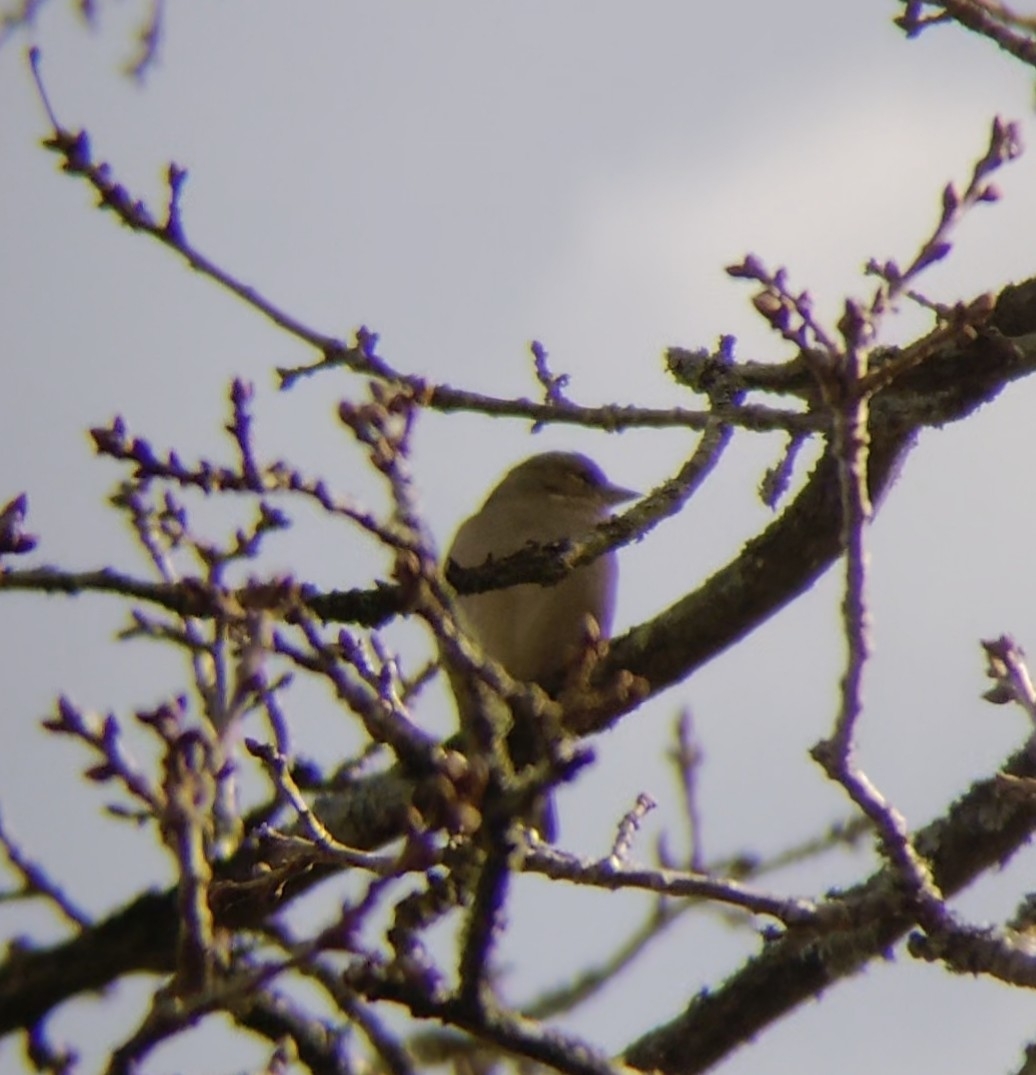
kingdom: Animalia
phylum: Chordata
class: Aves
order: Passeriformes
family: Fringillidae
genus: Fringilla
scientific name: Fringilla coelebs
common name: Common chaffinch
